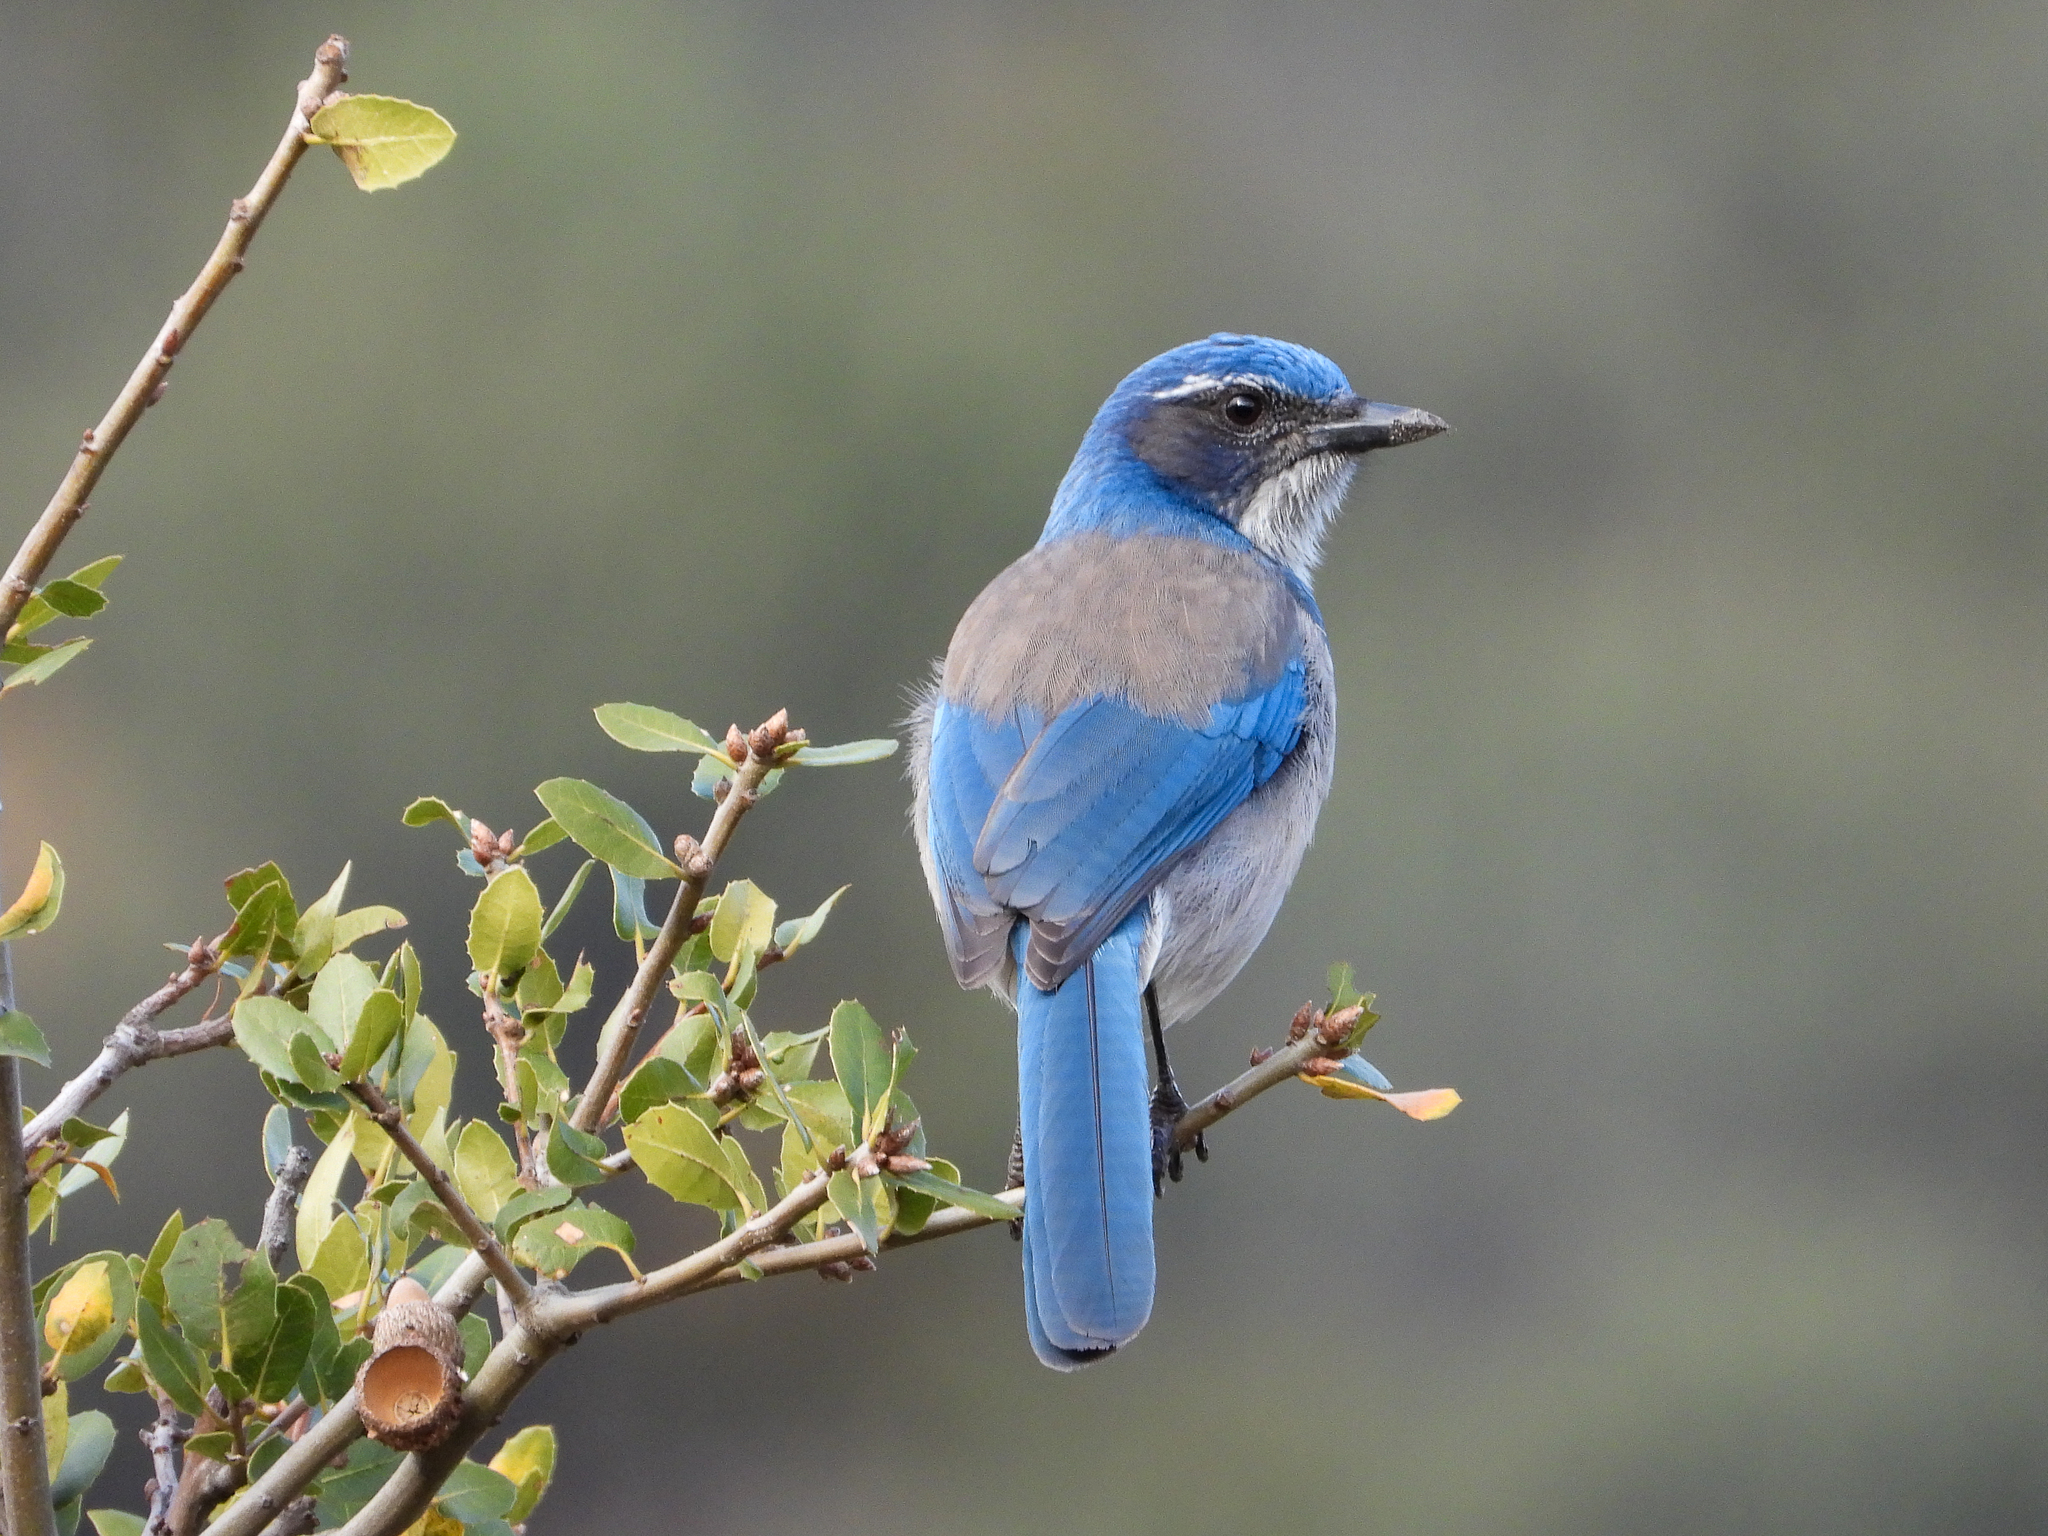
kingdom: Animalia
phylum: Chordata
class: Aves
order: Passeriformes
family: Corvidae
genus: Aphelocoma
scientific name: Aphelocoma californica
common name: California scrub-jay
